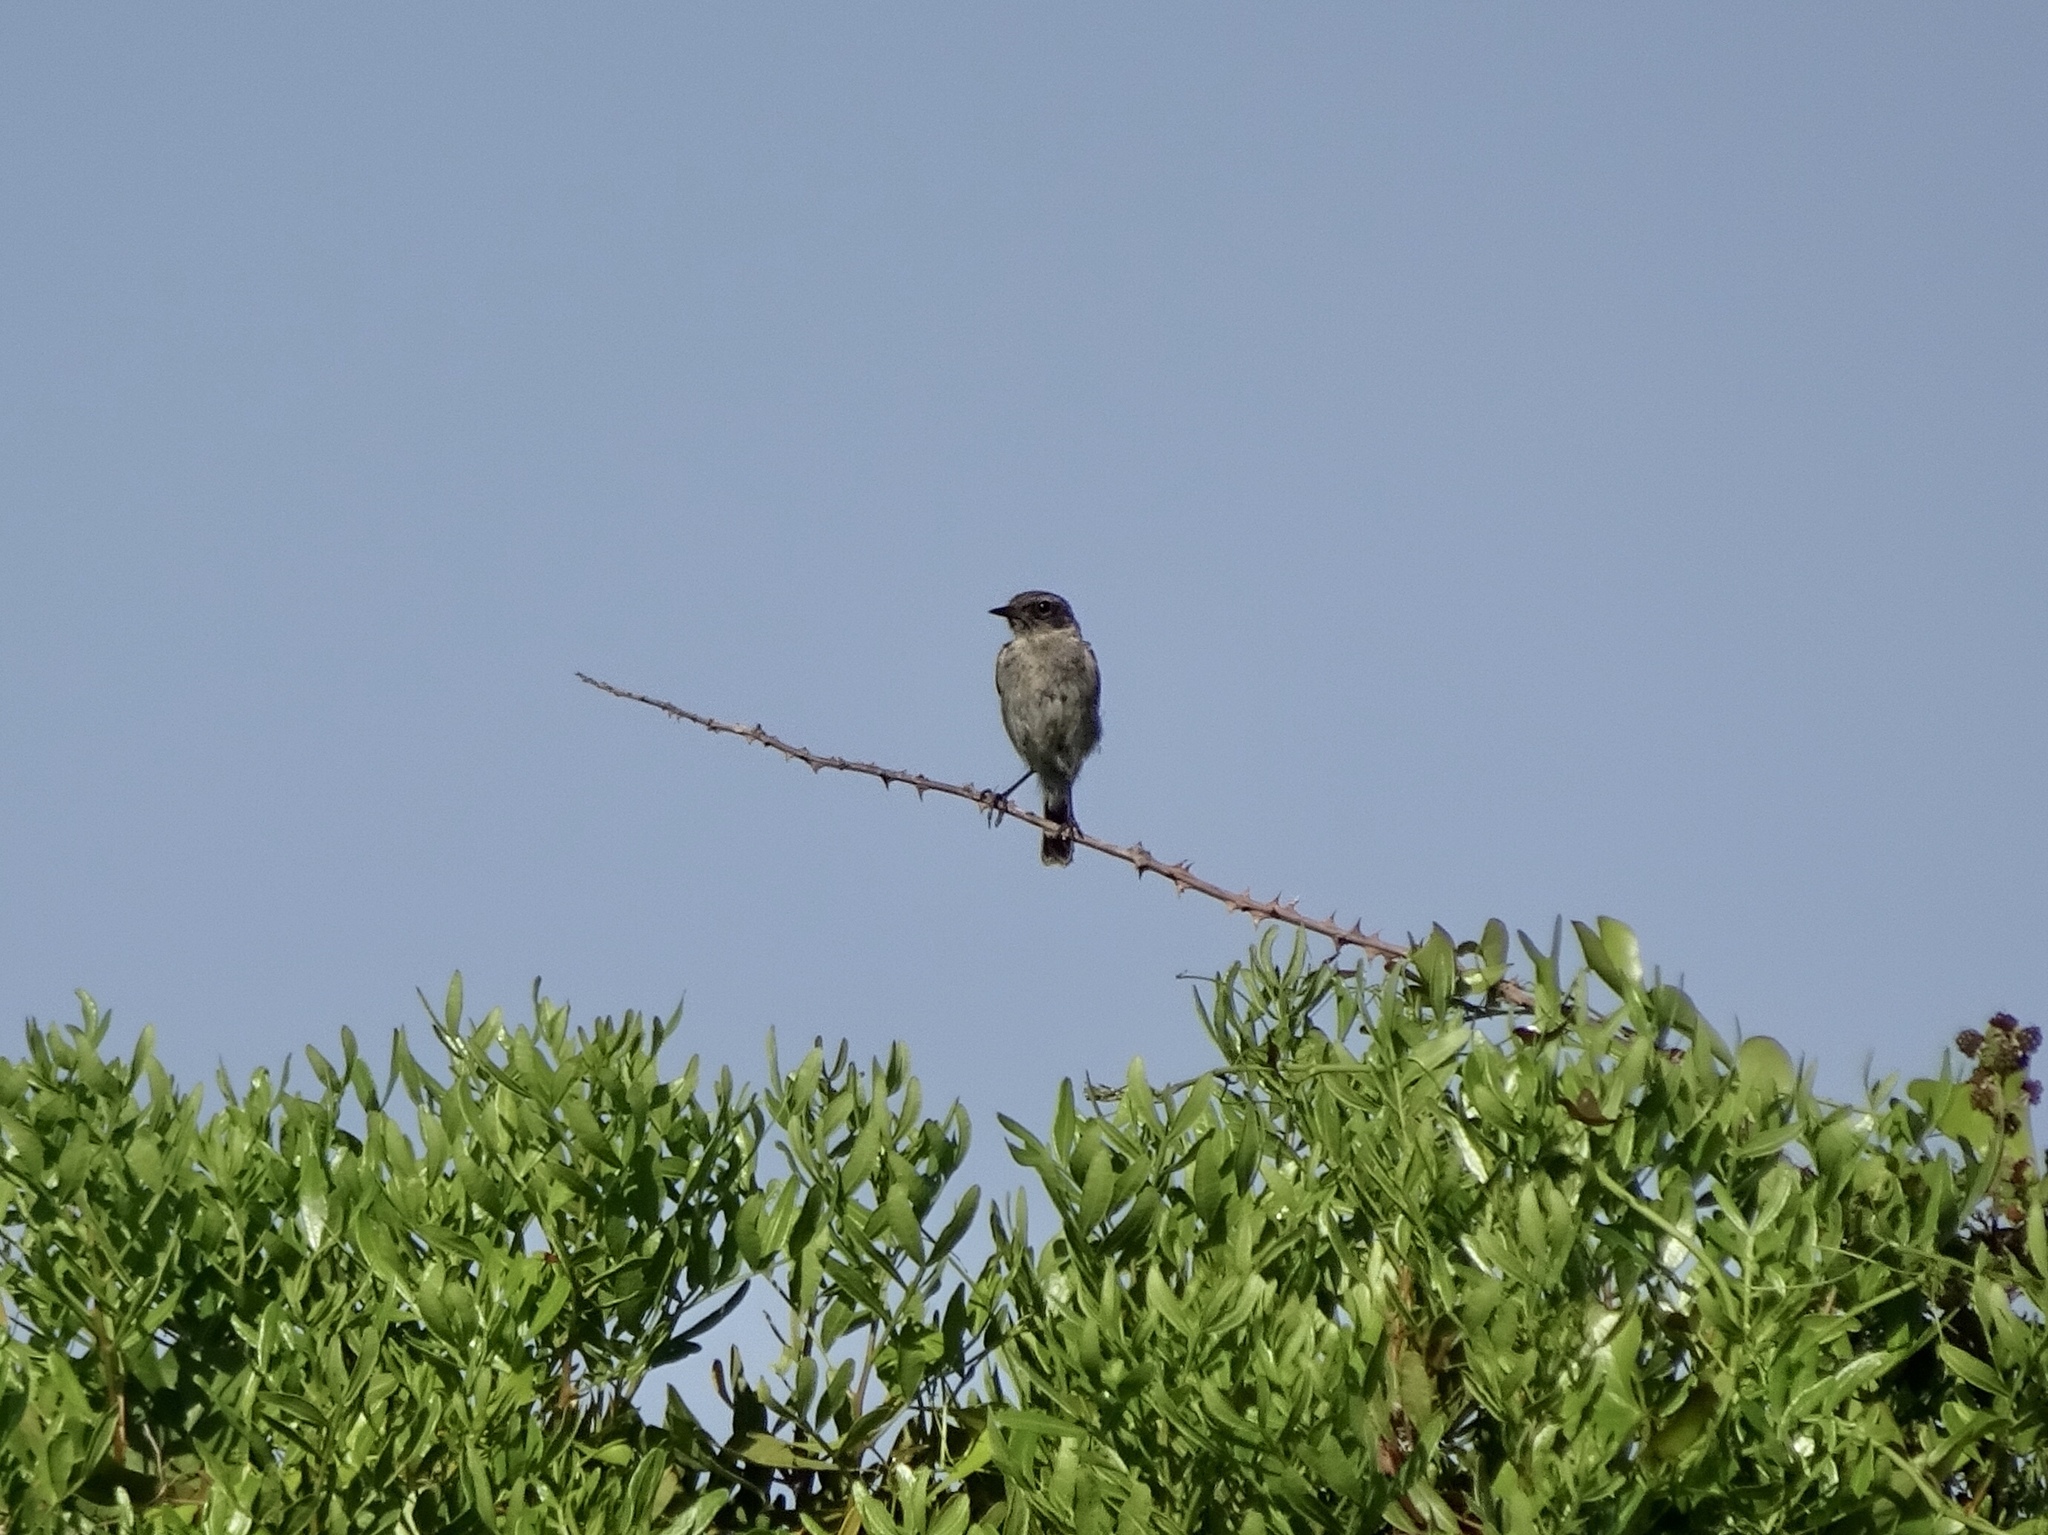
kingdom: Animalia
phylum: Chordata
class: Aves
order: Passeriformes
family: Muscicapidae
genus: Saxicola
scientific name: Saxicola rubicola
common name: European stonechat
